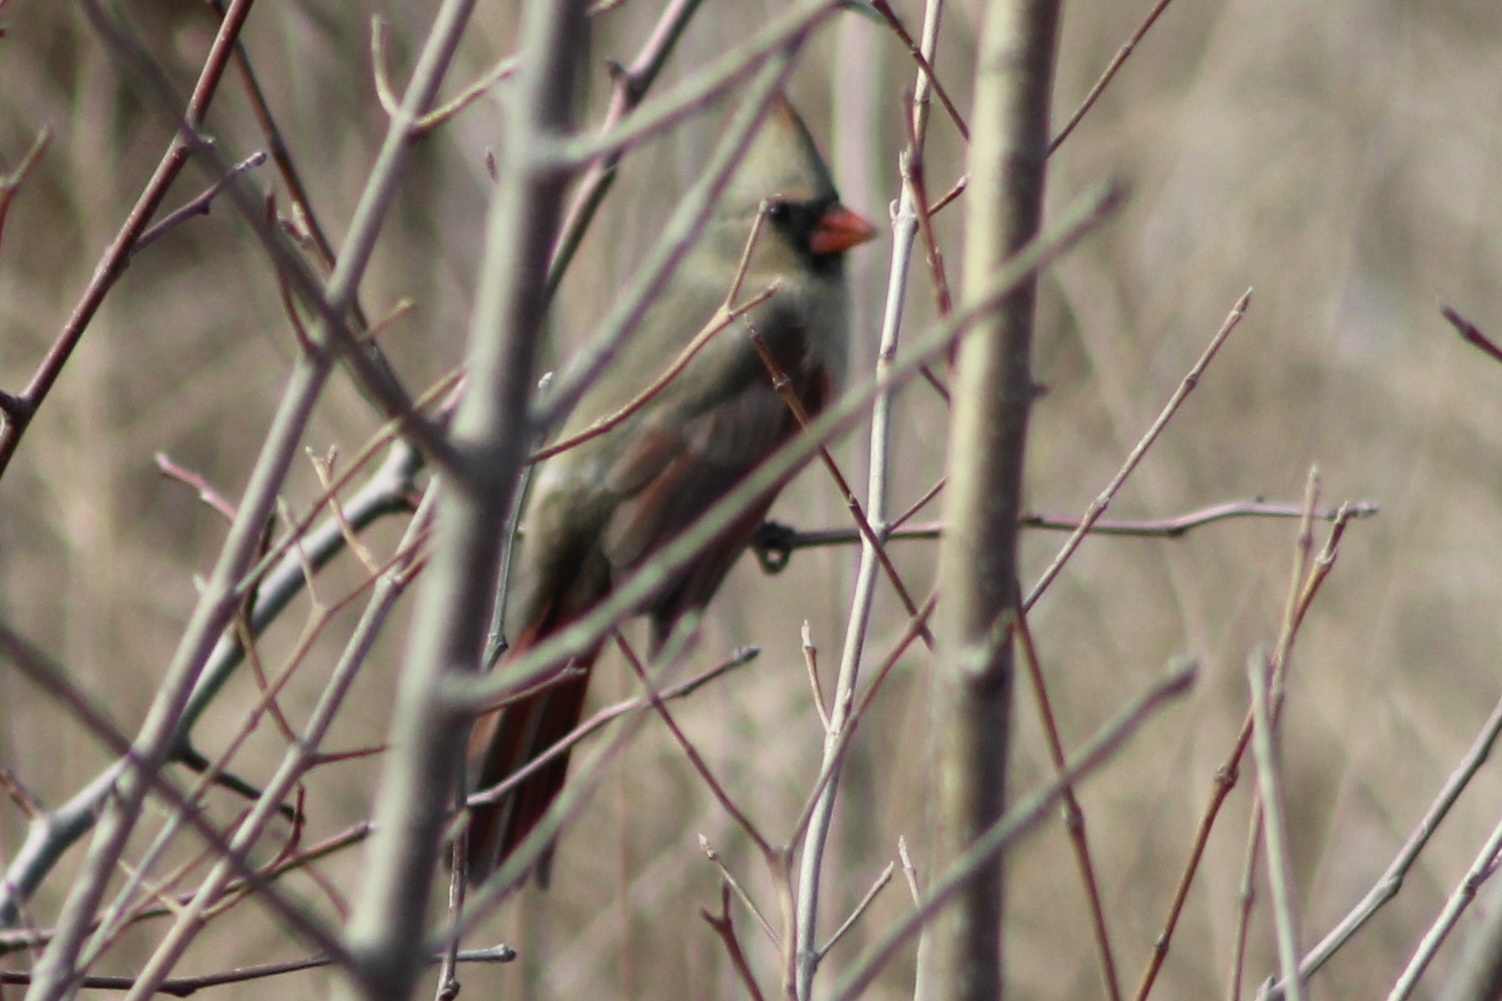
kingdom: Animalia
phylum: Chordata
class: Aves
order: Passeriformes
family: Cardinalidae
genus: Cardinalis
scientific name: Cardinalis cardinalis
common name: Northern cardinal
